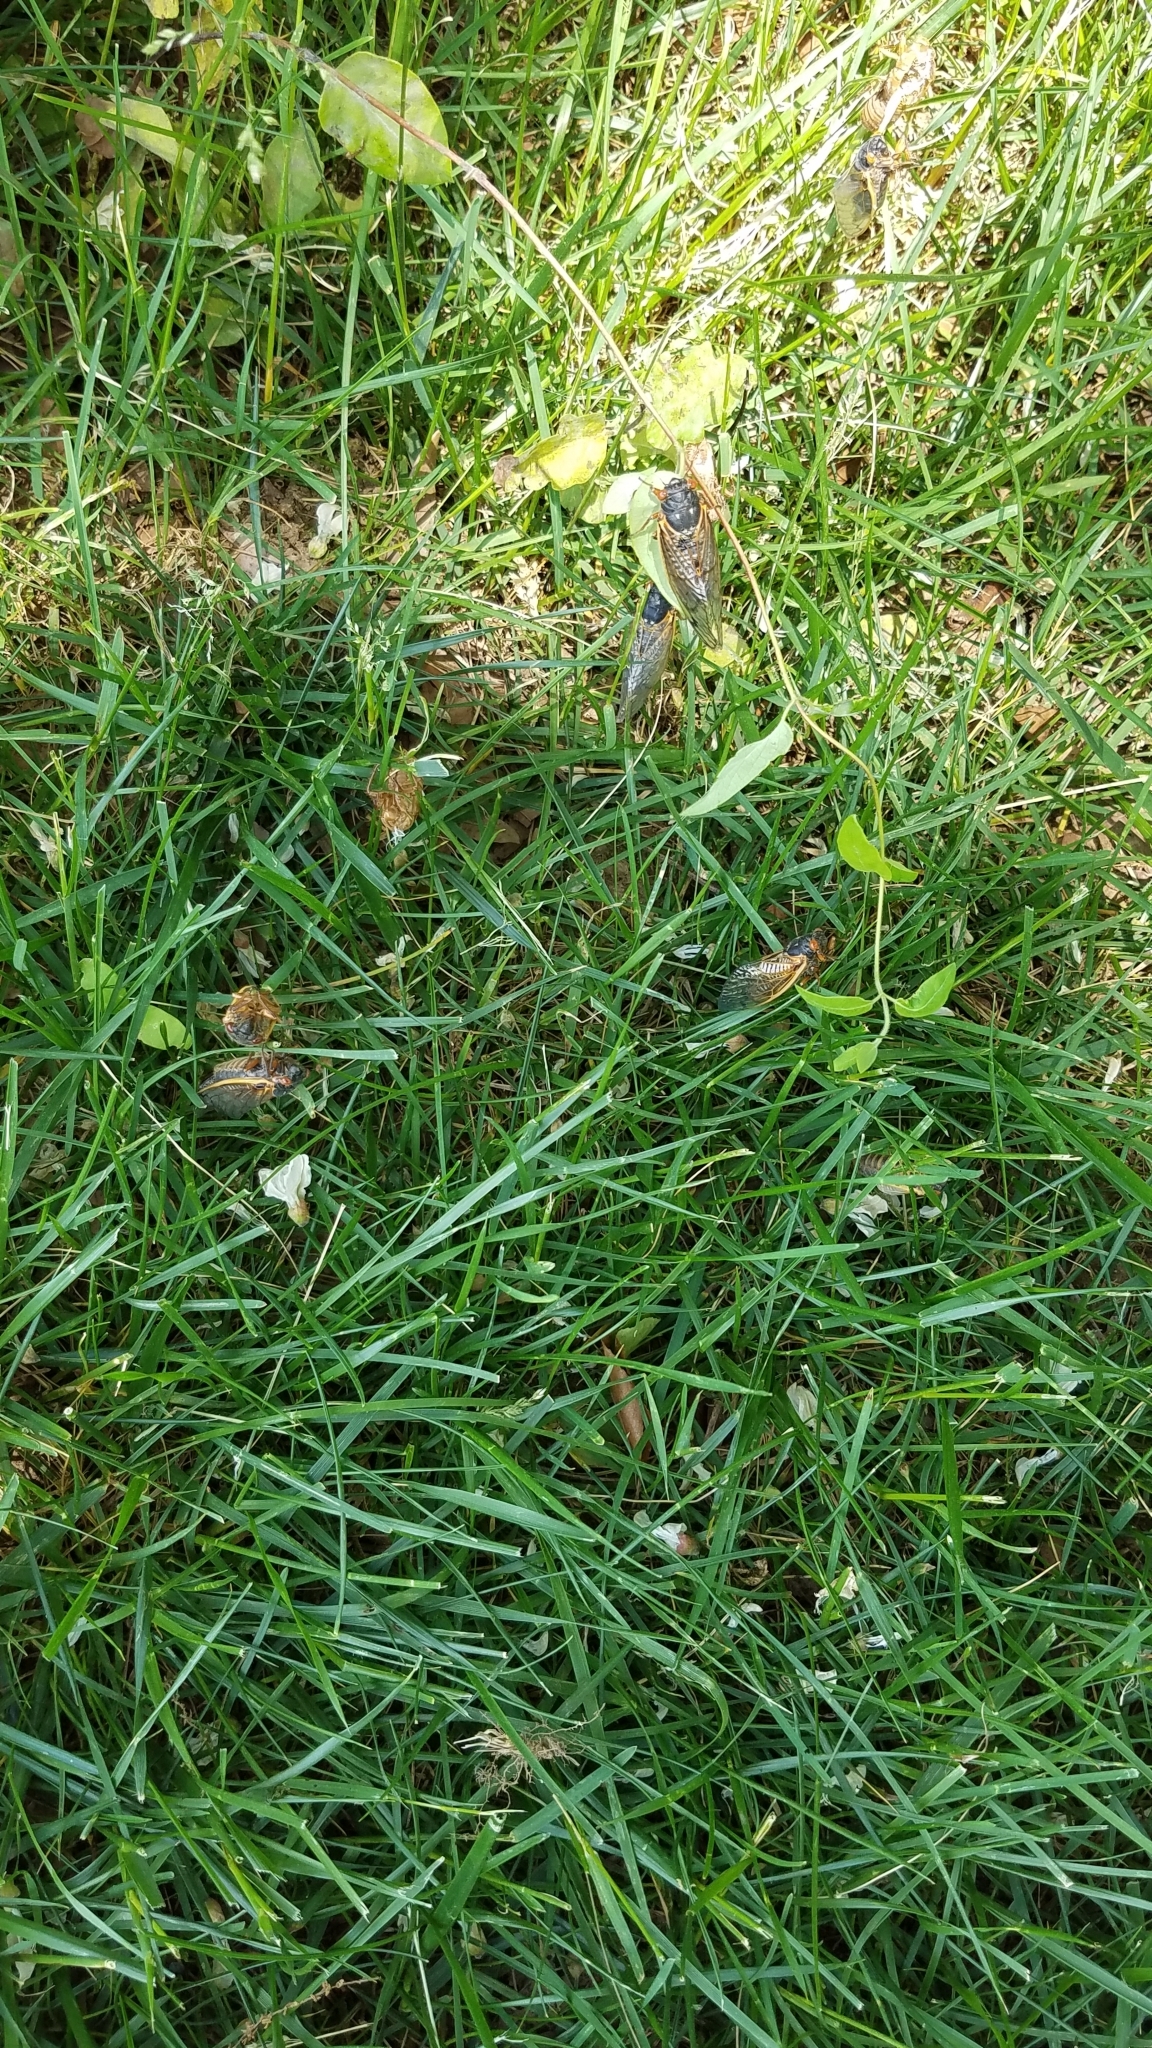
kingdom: Animalia
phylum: Arthropoda
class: Insecta
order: Hemiptera
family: Cicadidae
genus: Magicicada
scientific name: Magicicada
